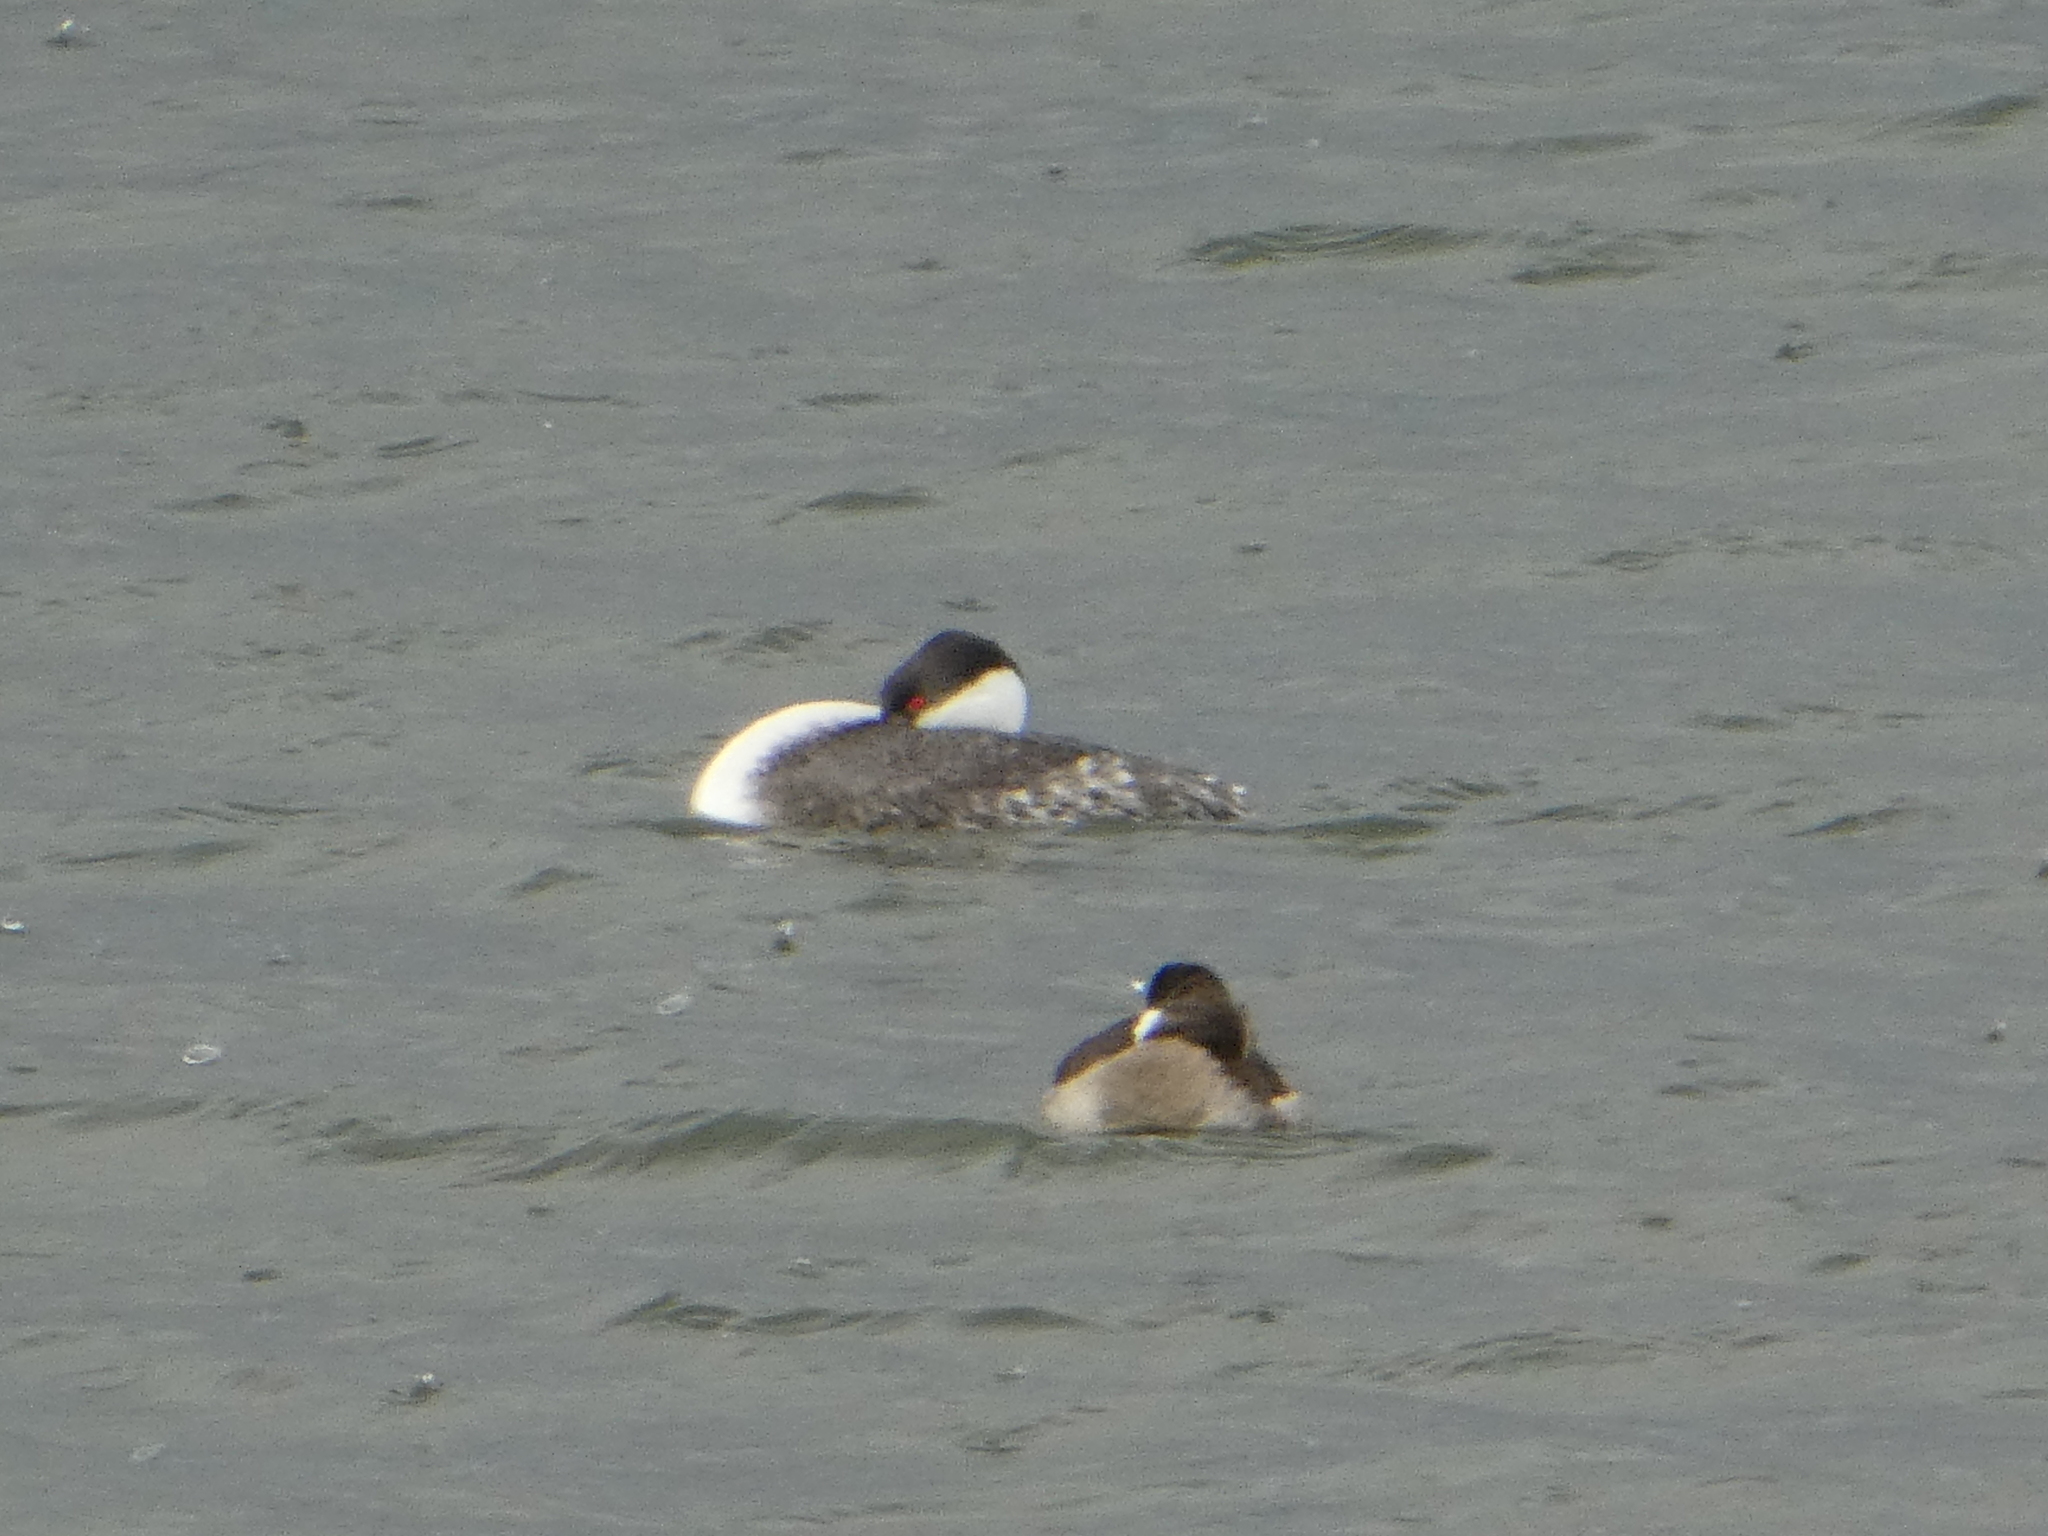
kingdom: Animalia
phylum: Chordata
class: Aves
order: Podicipediformes
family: Podicipedidae
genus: Aechmophorus
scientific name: Aechmophorus occidentalis
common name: Western grebe
